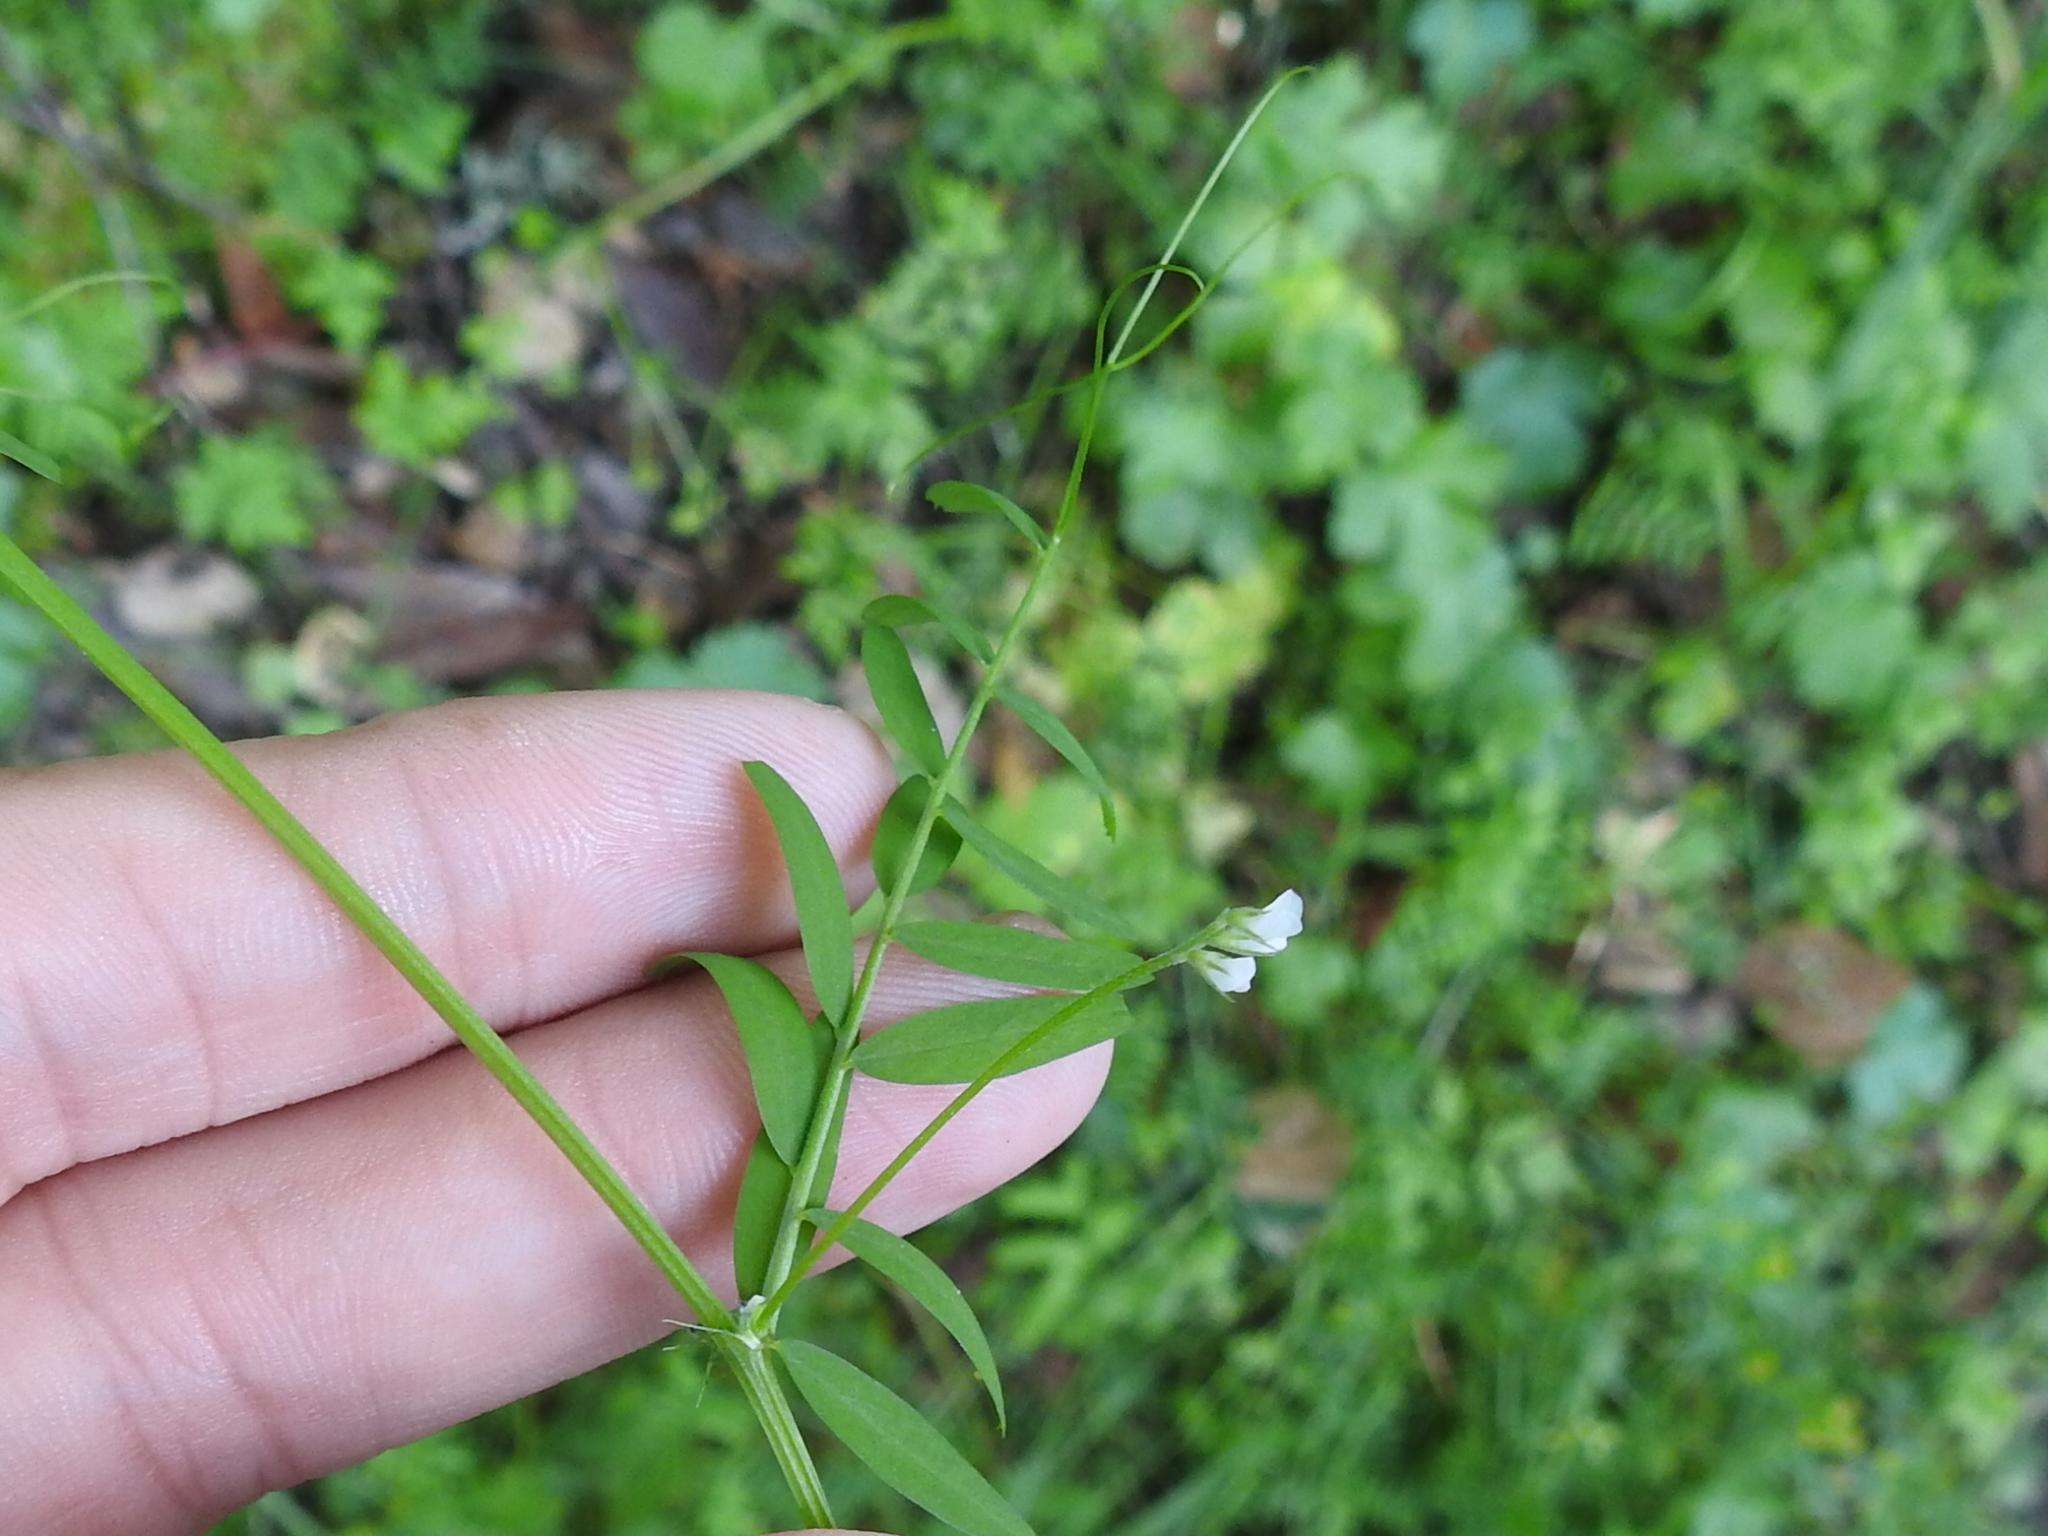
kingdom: Plantae
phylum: Tracheophyta
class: Magnoliopsida
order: Fabales
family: Fabaceae
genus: Vicia
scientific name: Vicia hassei
